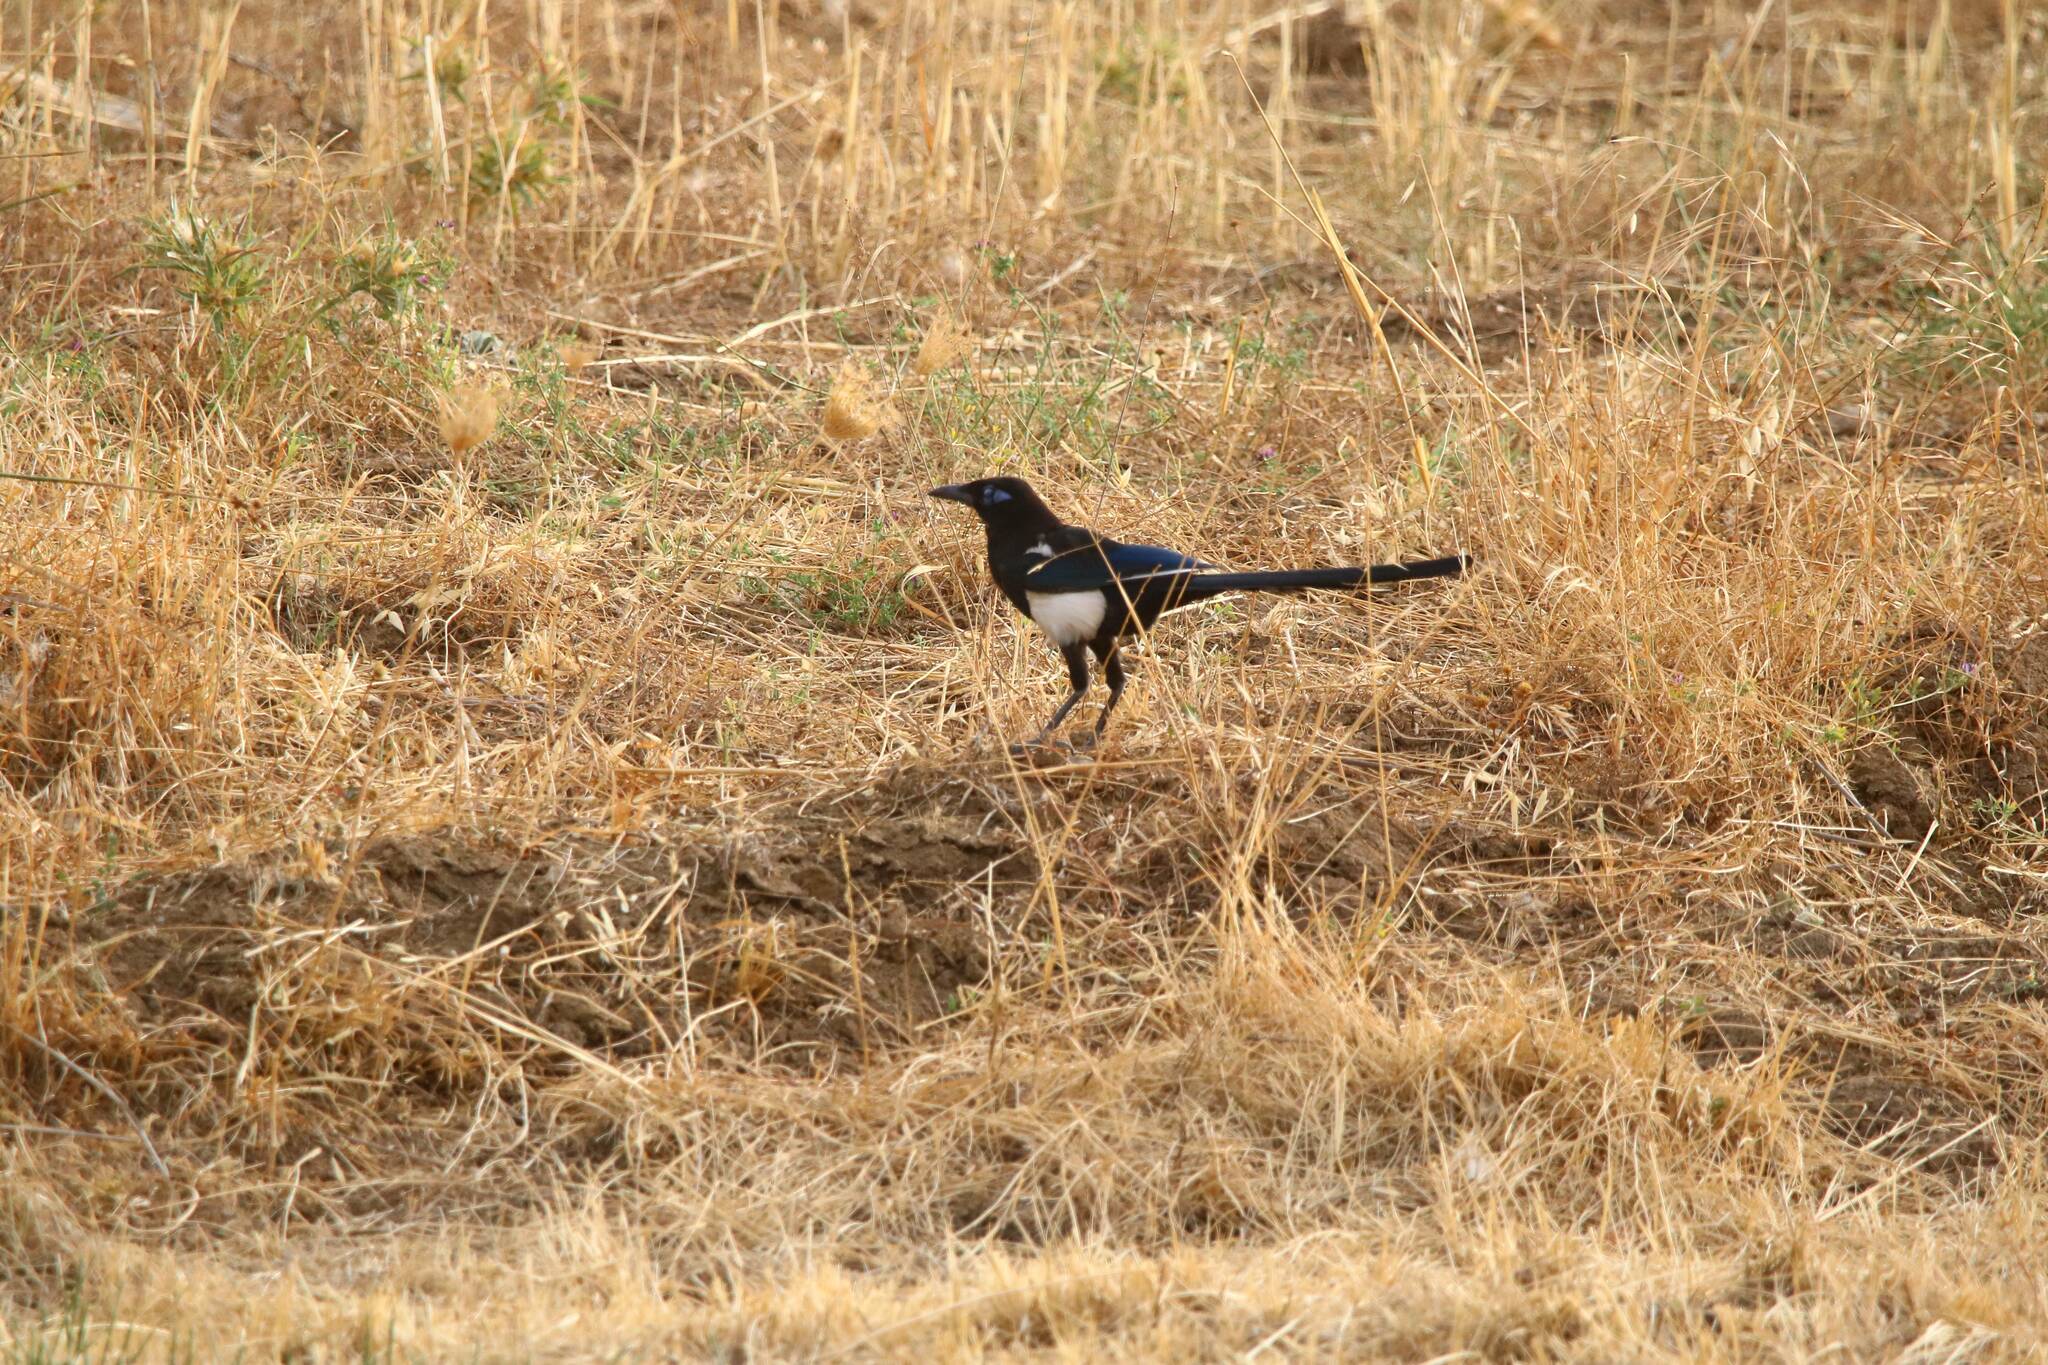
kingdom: Animalia
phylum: Chordata
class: Aves
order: Passeriformes
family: Corvidae
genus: Pica
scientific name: Pica mauritanica
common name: Maghreb magpie
